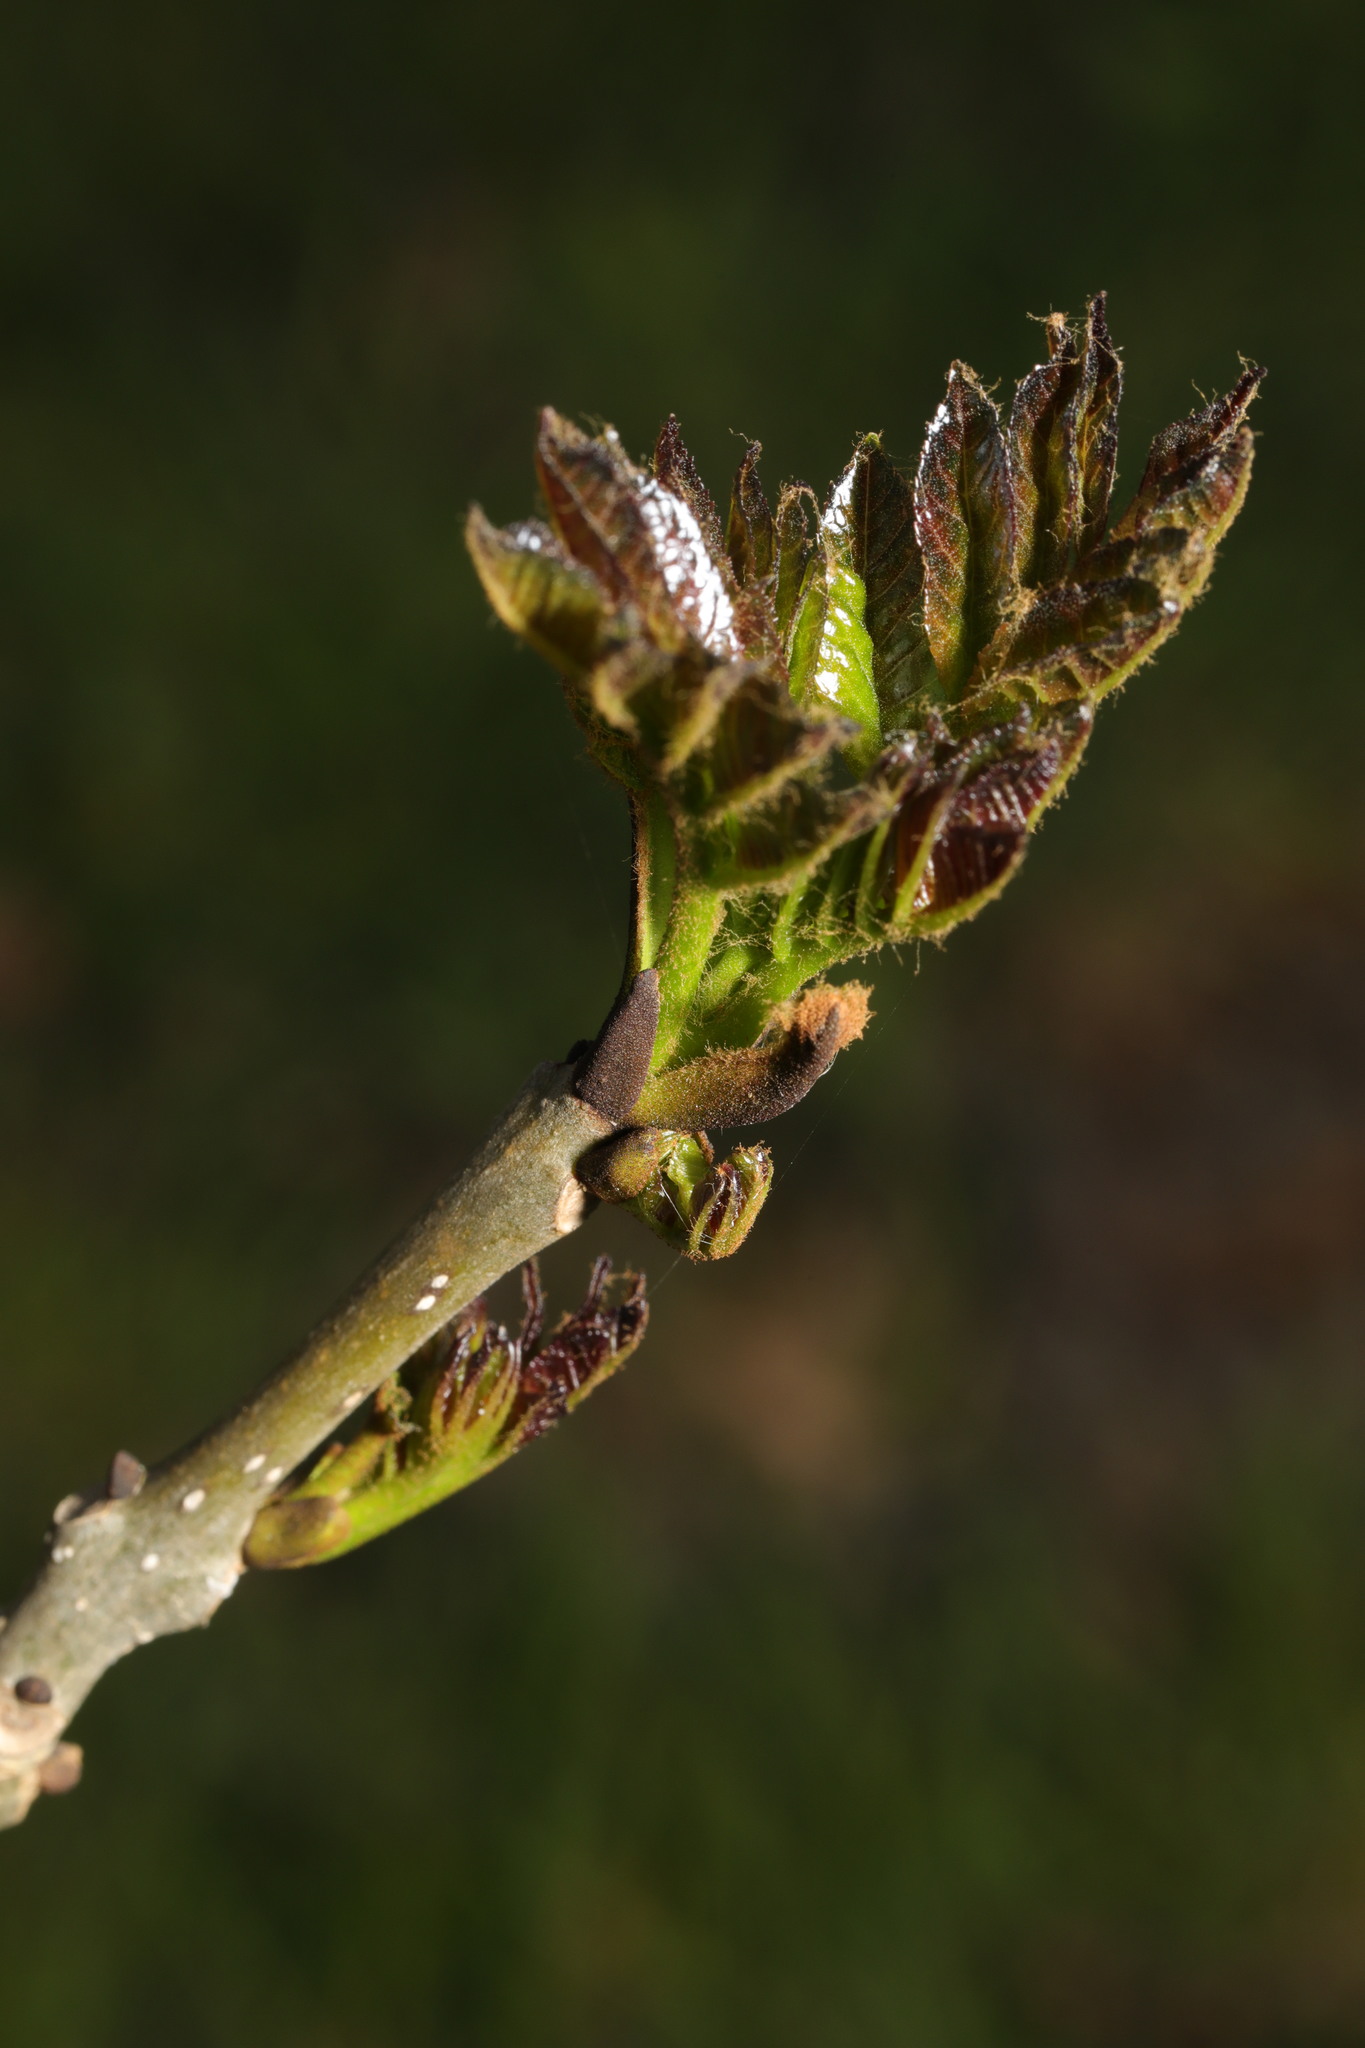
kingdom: Plantae
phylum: Tracheophyta
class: Magnoliopsida
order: Lamiales
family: Oleaceae
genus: Fraxinus
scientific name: Fraxinus excelsior
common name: European ash
